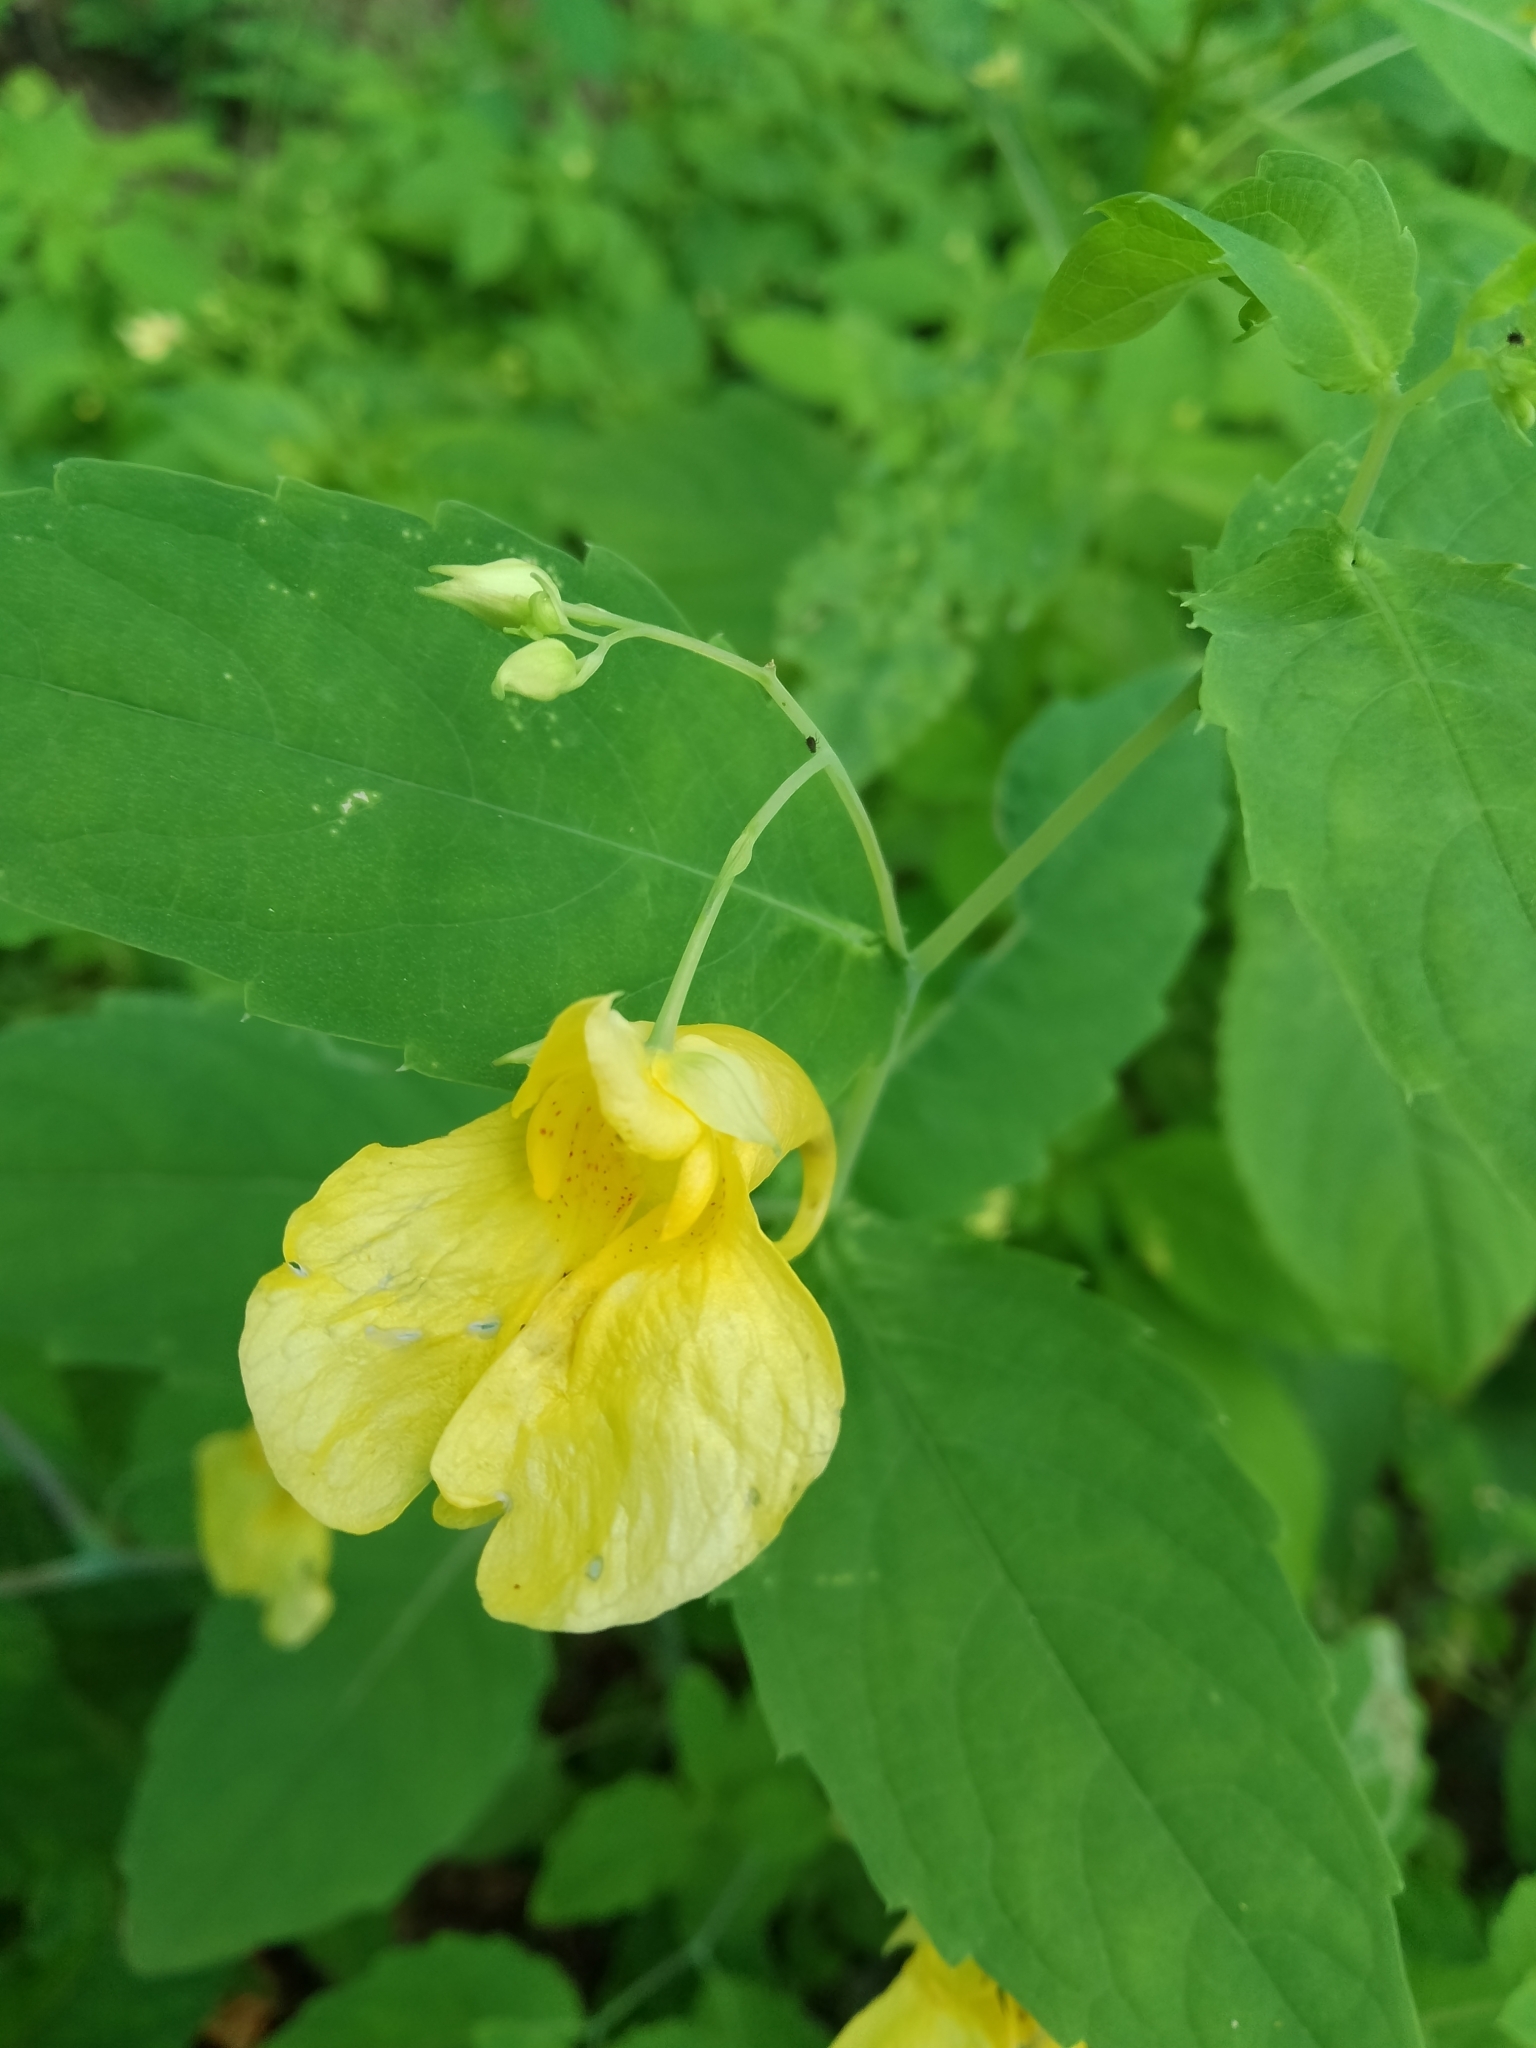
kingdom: Plantae
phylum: Tracheophyta
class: Magnoliopsida
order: Ericales
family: Balsaminaceae
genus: Impatiens
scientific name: Impatiens noli-tangere
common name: Touch-me-not balsam
